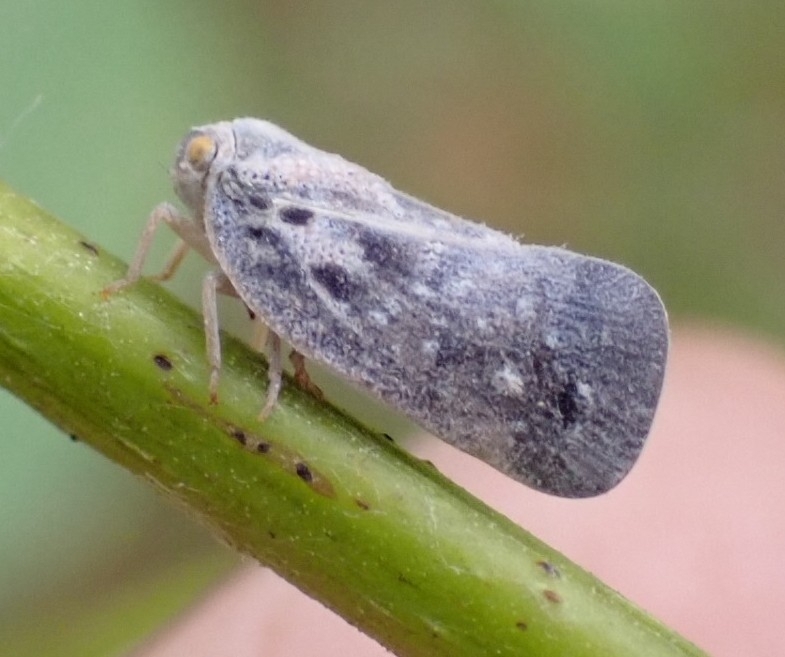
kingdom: Animalia
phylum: Arthropoda
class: Insecta
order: Hemiptera
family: Flatidae
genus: Metcalfa
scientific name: Metcalfa pruinosa
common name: Citrus flatid planthopper
